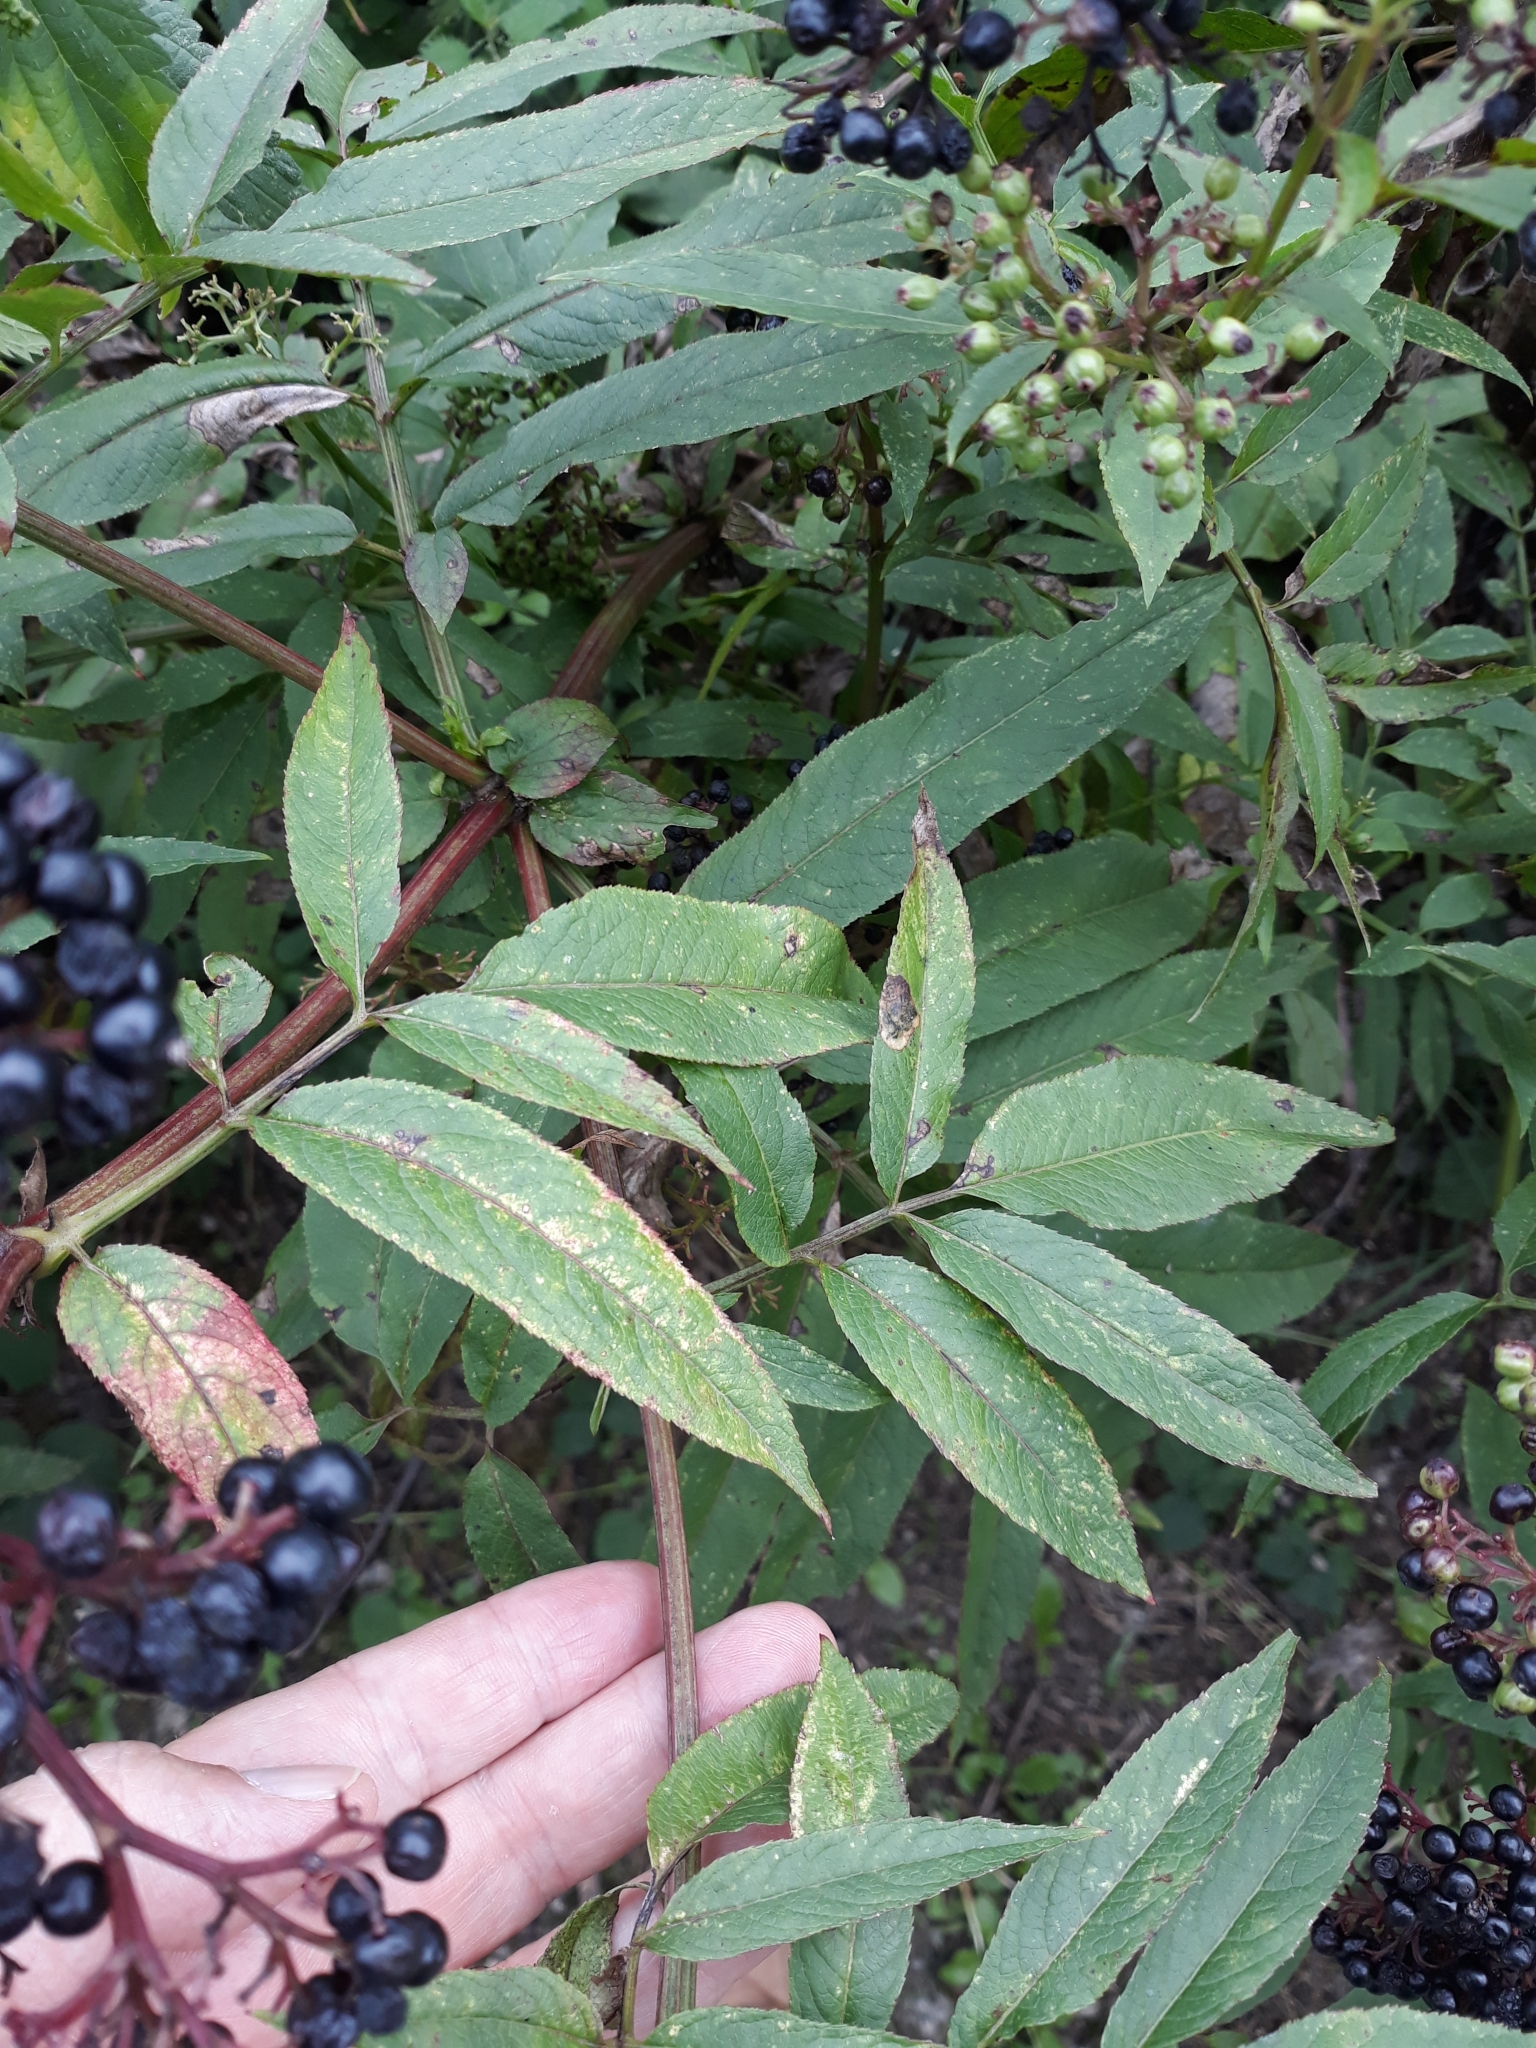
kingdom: Plantae
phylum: Tracheophyta
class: Magnoliopsida
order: Dipsacales
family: Viburnaceae
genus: Sambucus
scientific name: Sambucus nigra
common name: Elder
